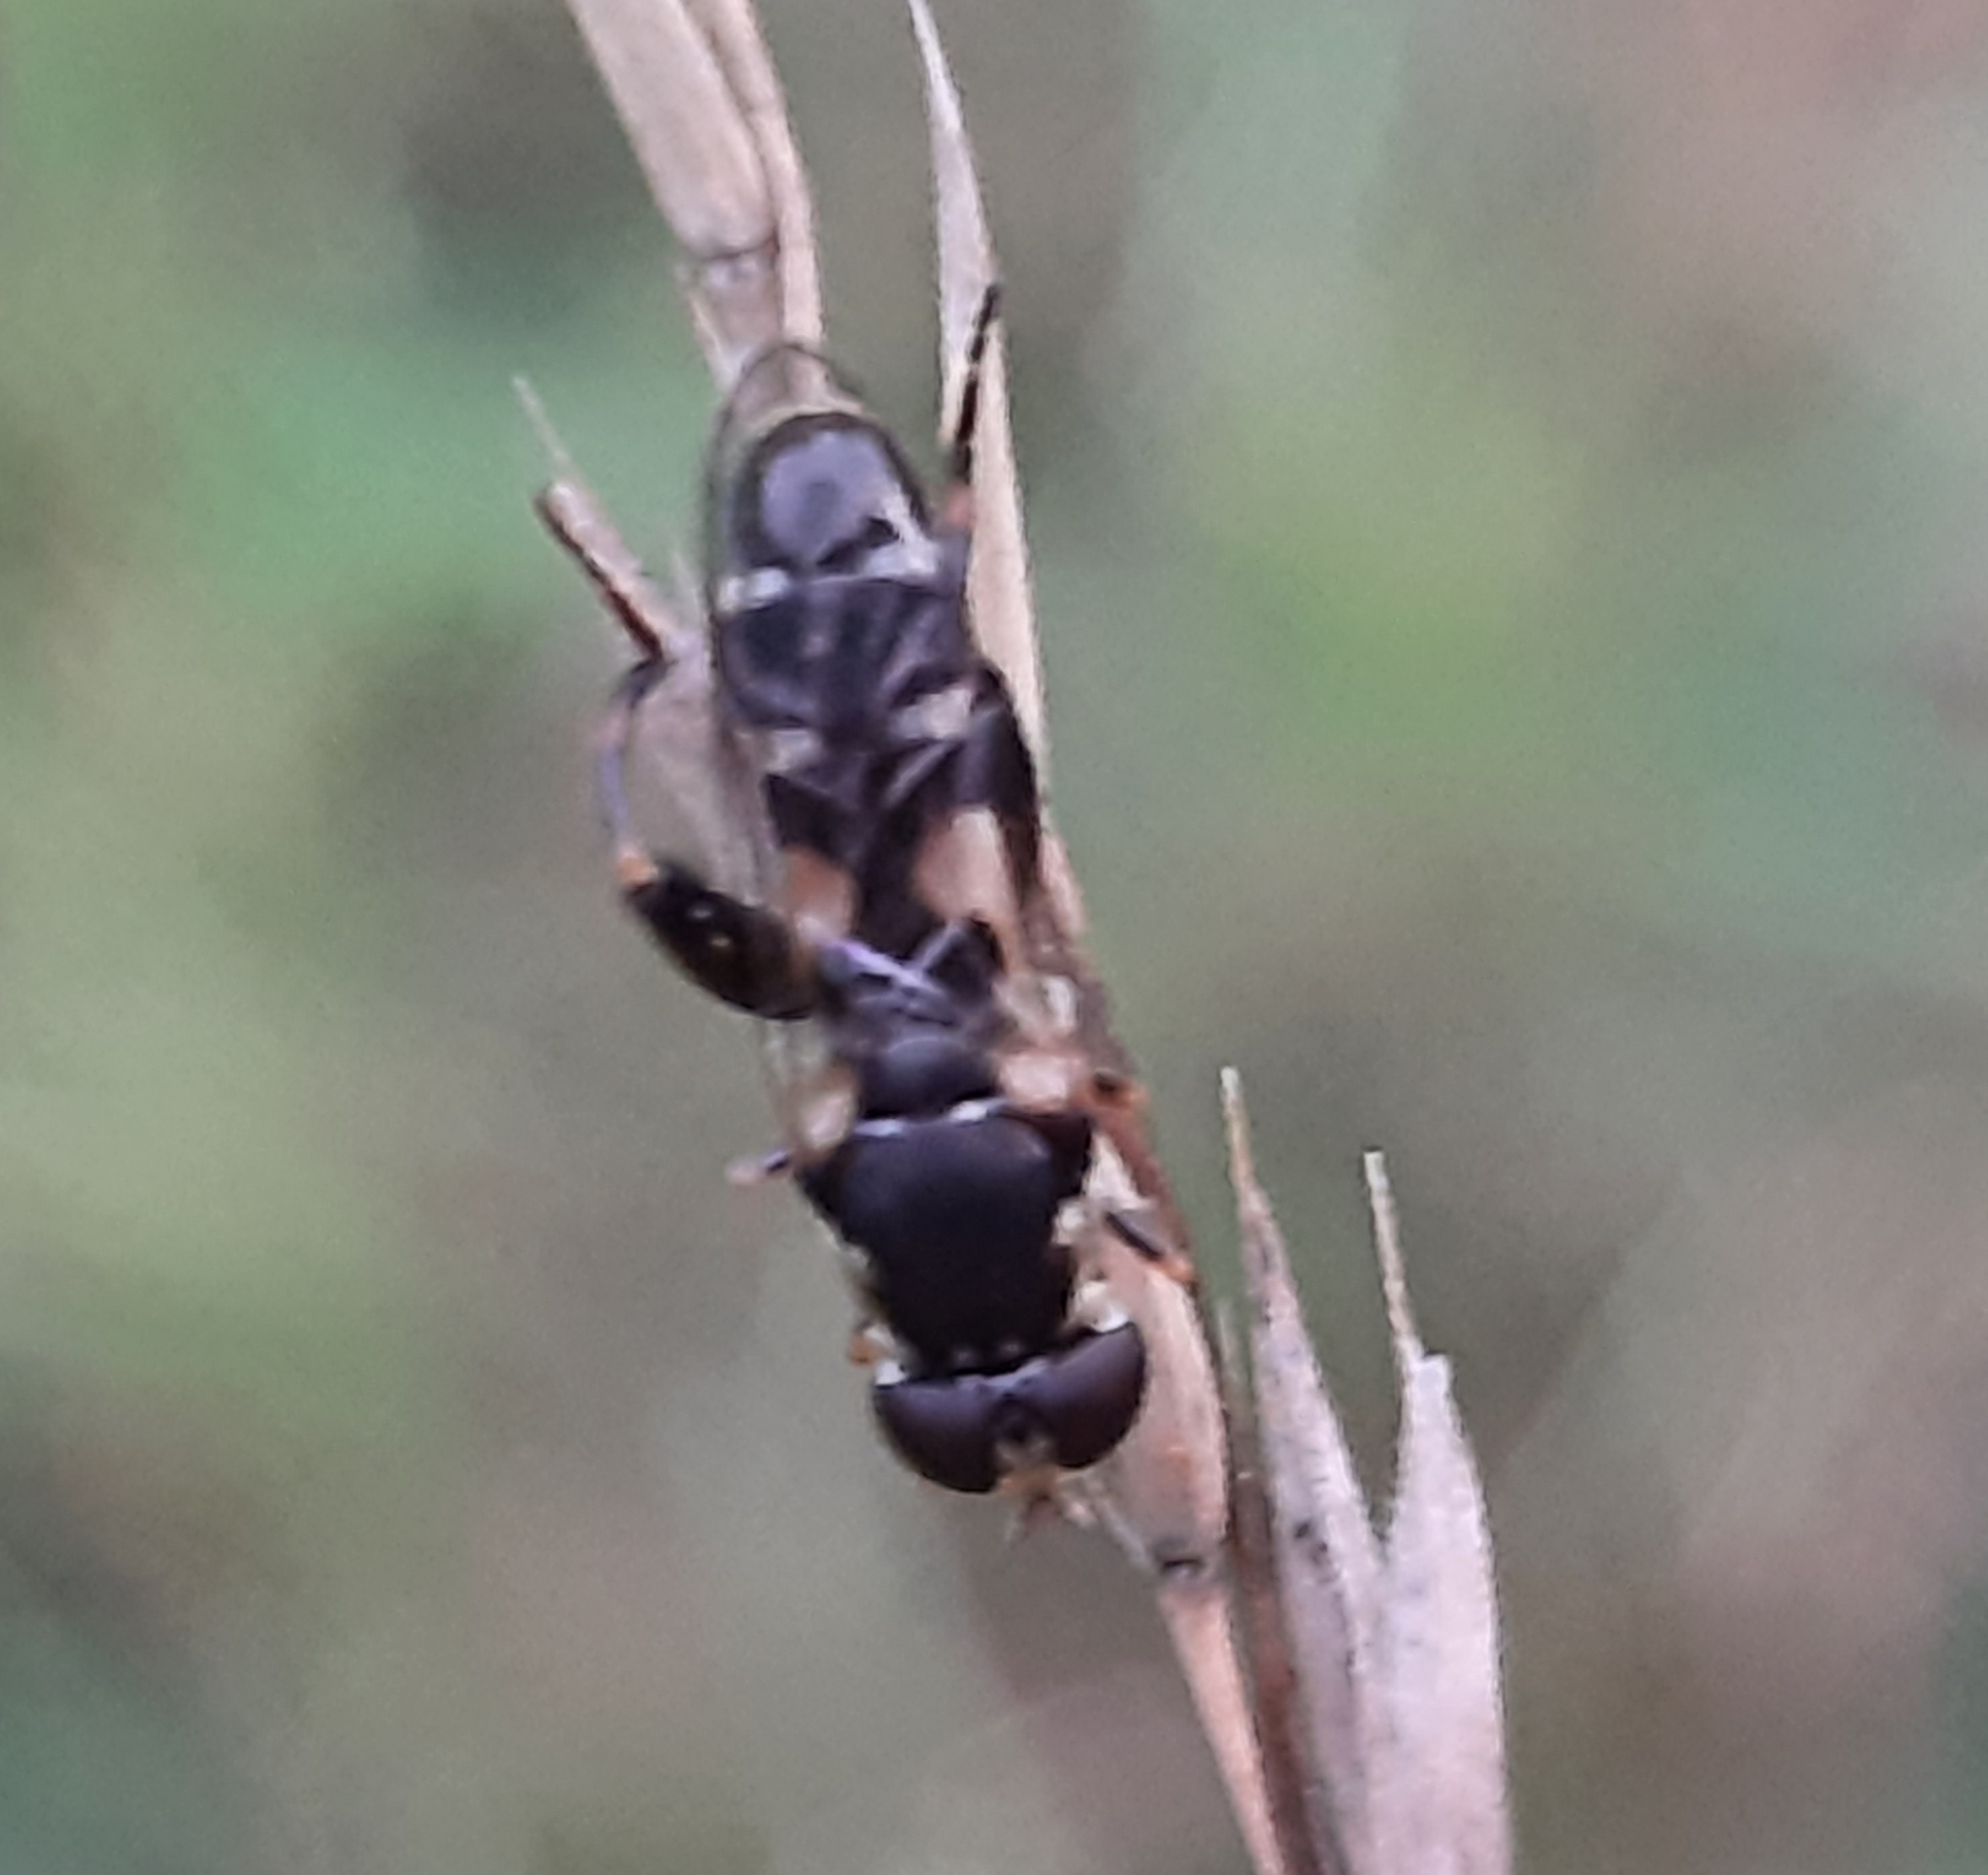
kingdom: Animalia
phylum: Arthropoda
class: Insecta
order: Diptera
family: Syrphidae
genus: Syritta
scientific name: Syritta pipiens
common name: Hover fly
